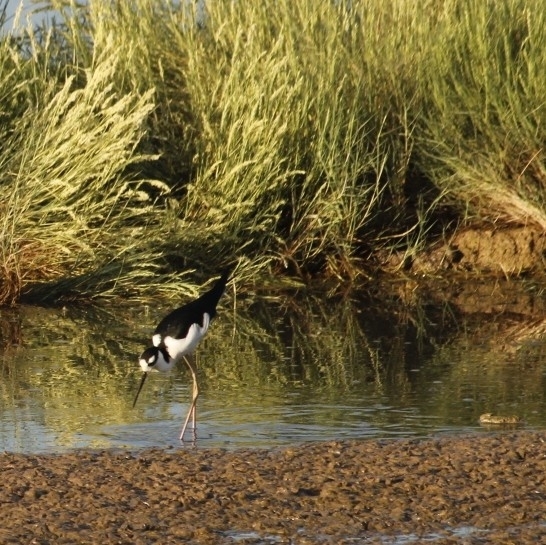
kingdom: Animalia
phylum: Chordata
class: Aves
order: Charadriiformes
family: Recurvirostridae
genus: Himantopus
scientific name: Himantopus mexicanus
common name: Black-necked stilt
